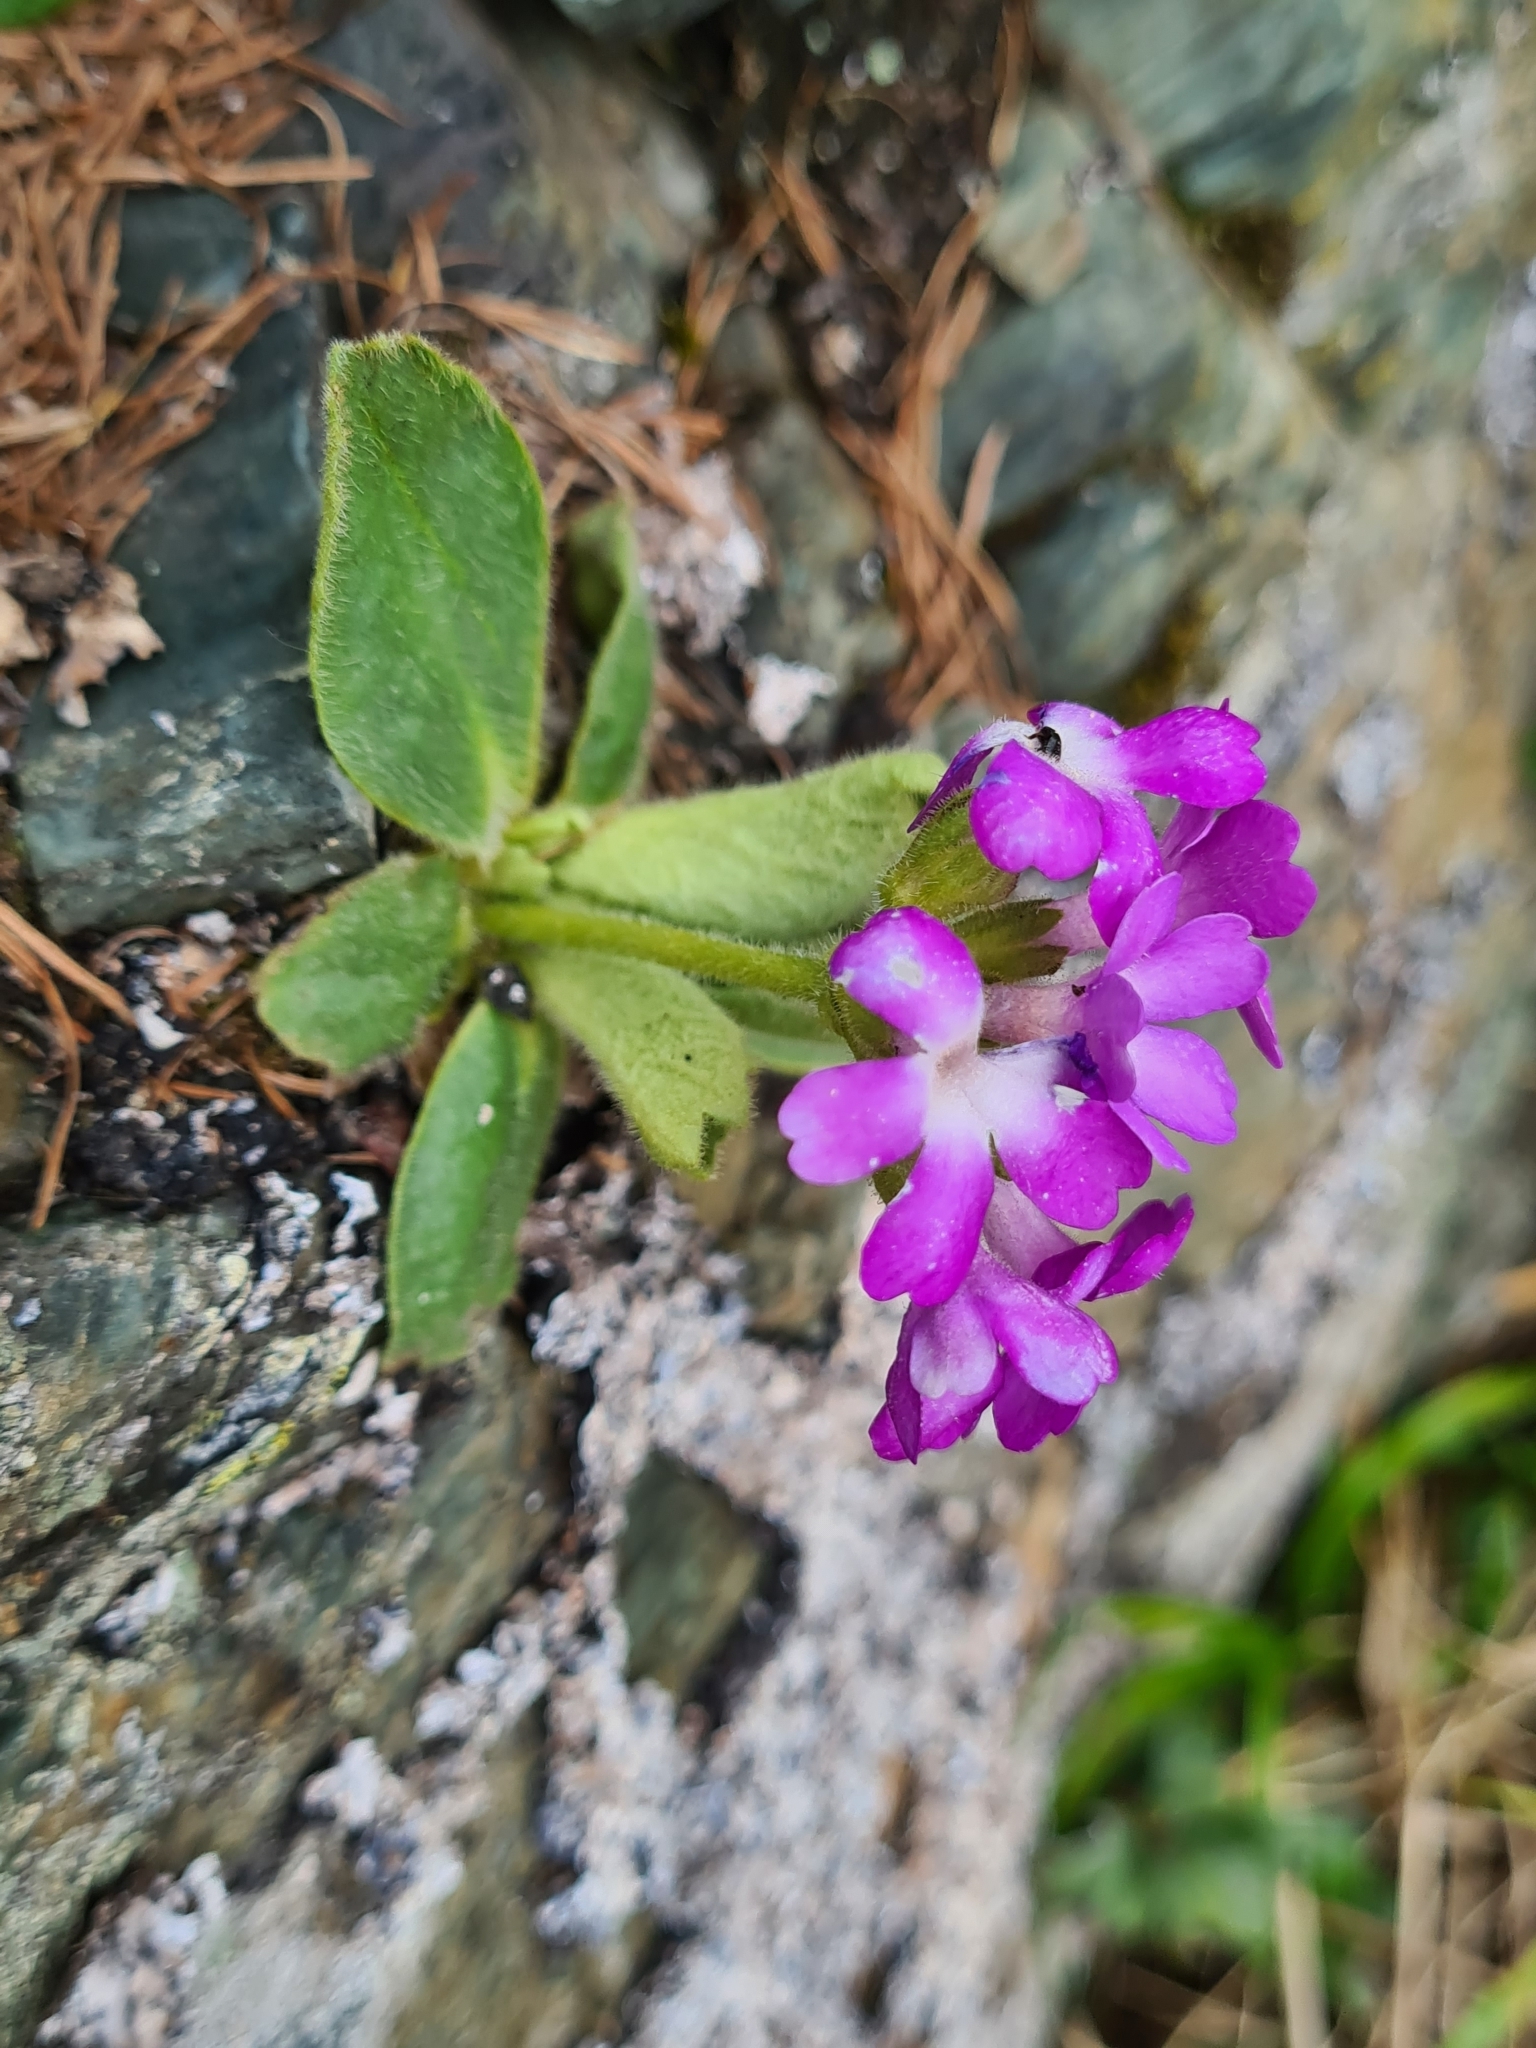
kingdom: Plantae
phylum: Tracheophyta
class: Magnoliopsida
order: Ericales
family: Primulaceae
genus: Primula
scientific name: Primula villosa
